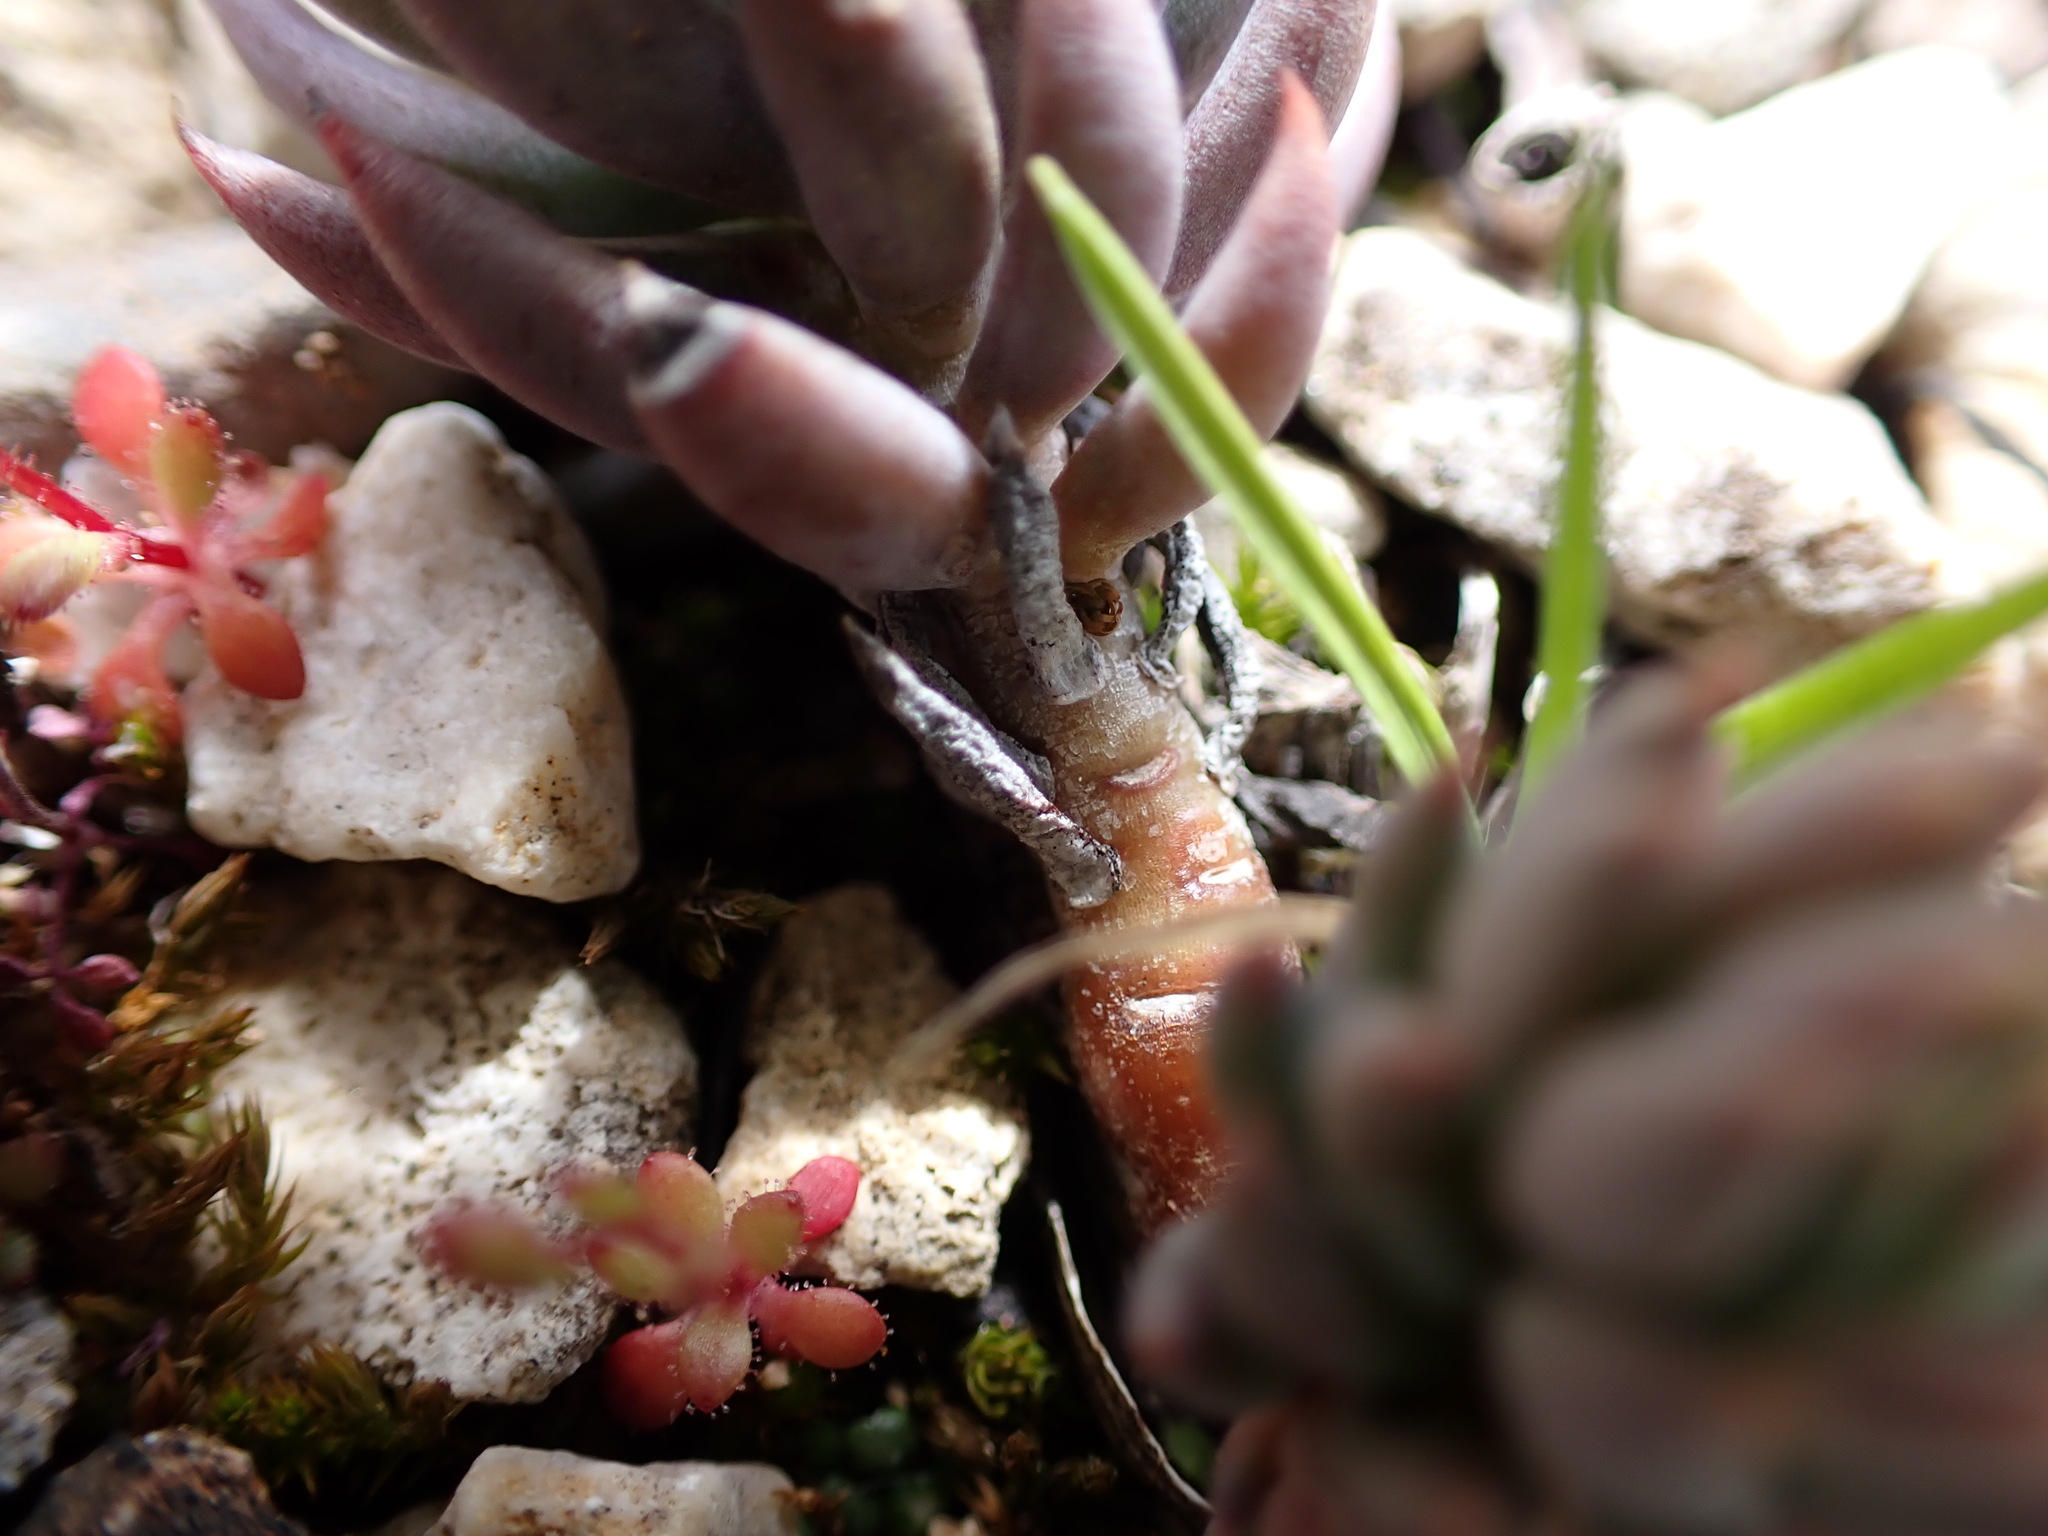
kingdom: Plantae
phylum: Tracheophyta
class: Magnoliopsida
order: Saxifragales
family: Crassulaceae
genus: Petrosedum
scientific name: Petrosedum sediforme
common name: Pale stonecrop
